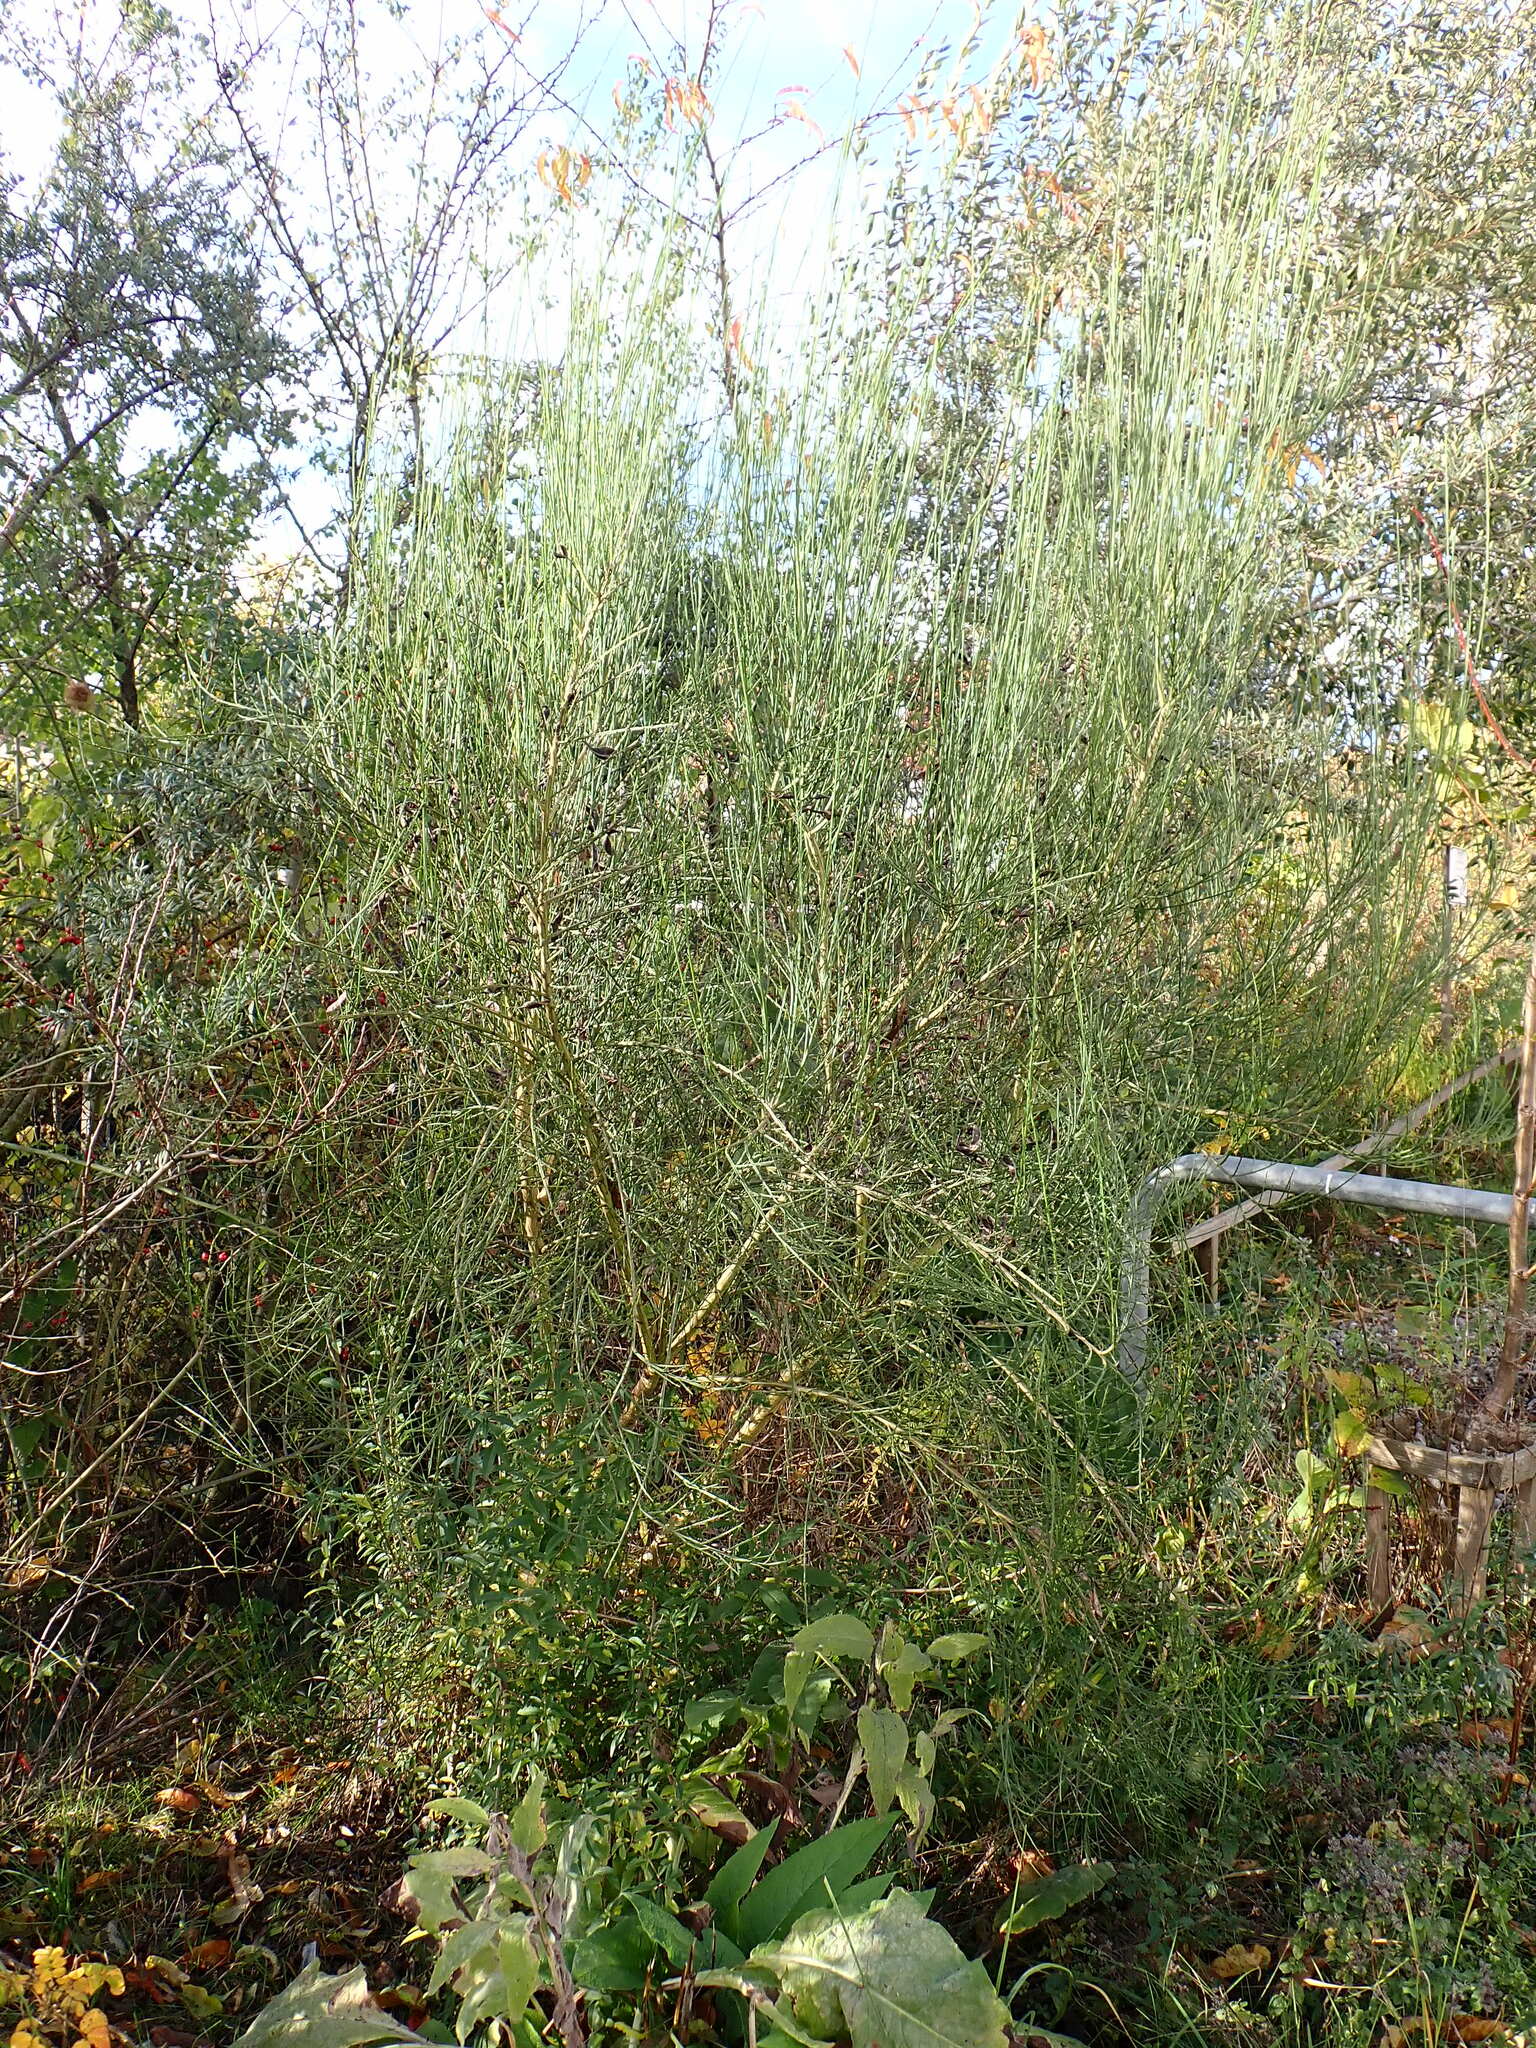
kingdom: Plantae
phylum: Tracheophyta
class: Magnoliopsida
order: Fabales
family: Fabaceae
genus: Cytisus
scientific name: Cytisus scoparius
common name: Scotch broom
